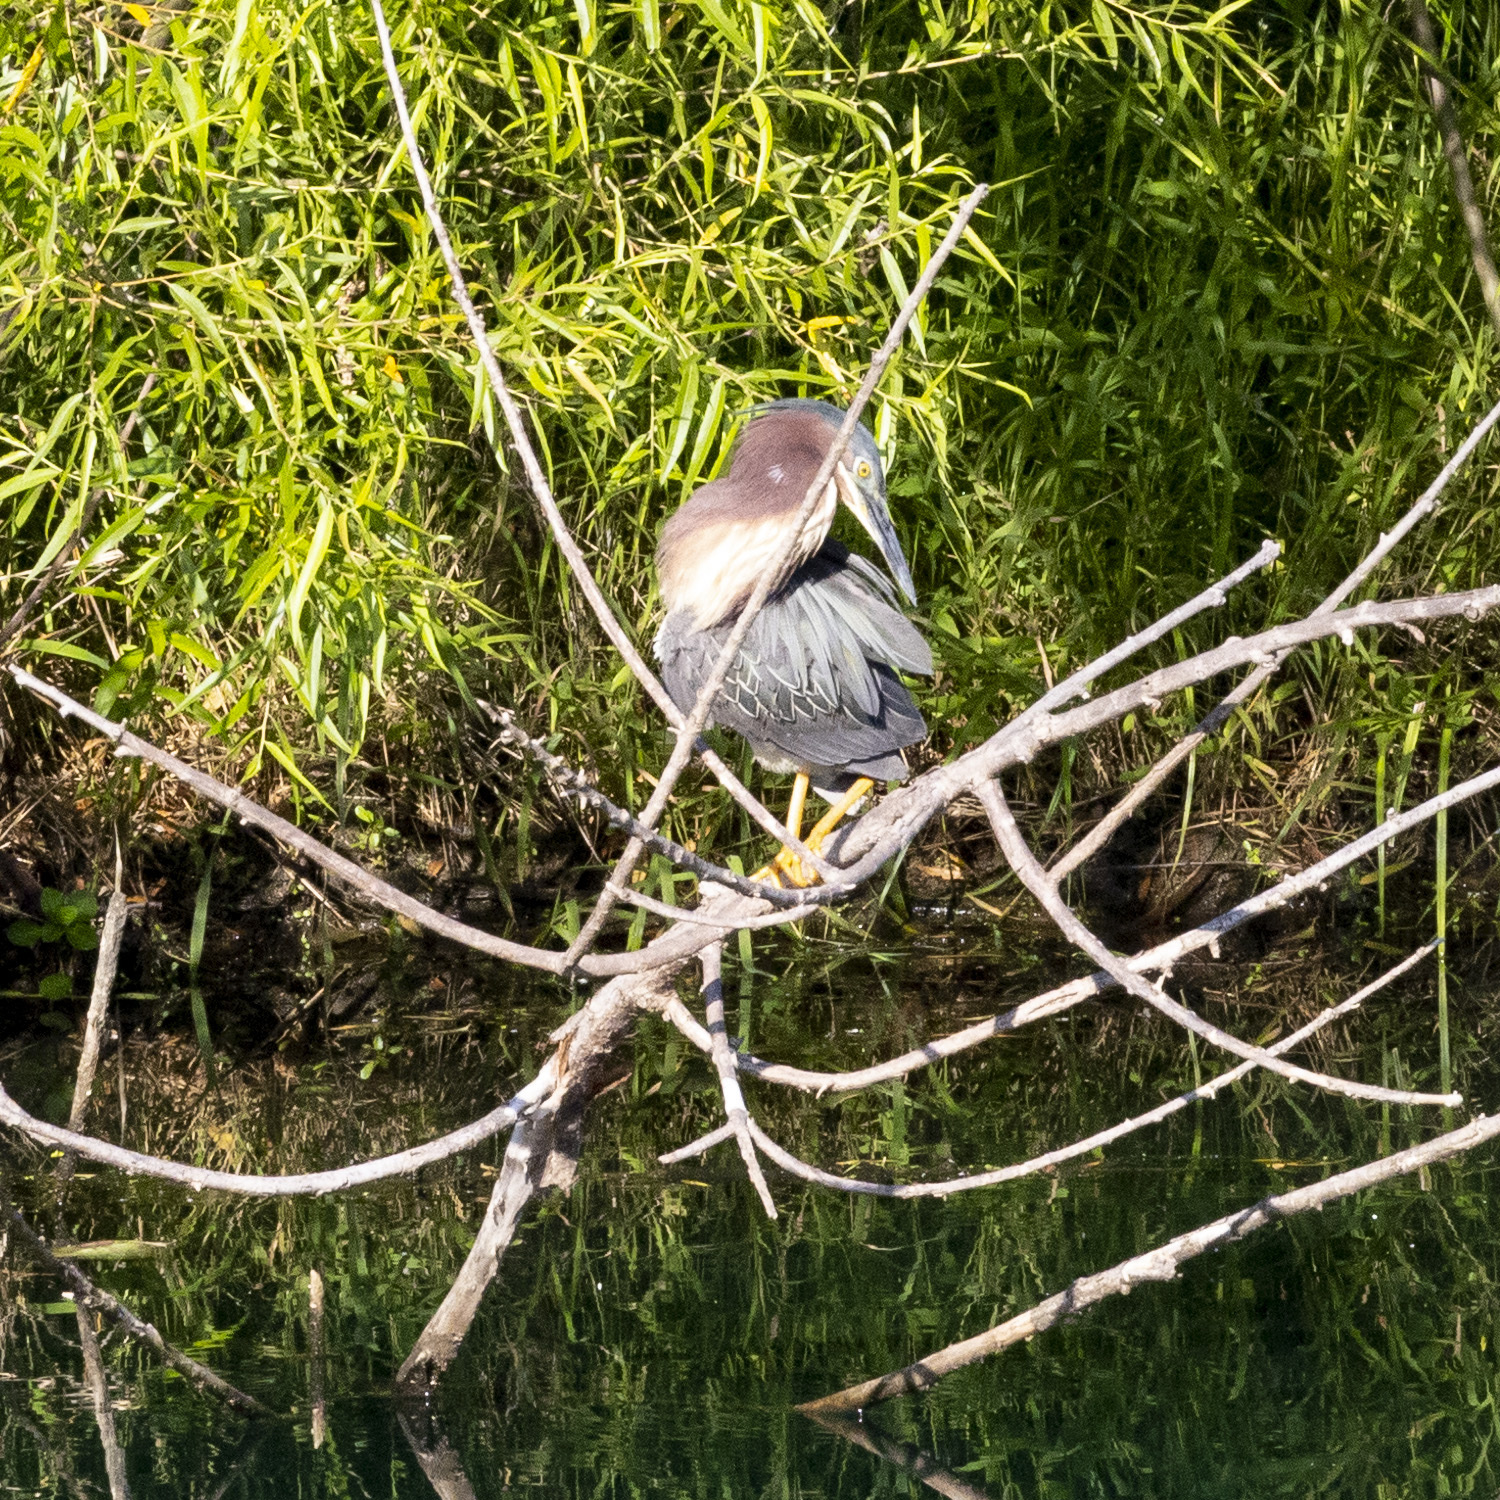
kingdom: Animalia
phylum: Chordata
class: Aves
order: Pelecaniformes
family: Ardeidae
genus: Butorides
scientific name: Butorides virescens
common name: Green heron
